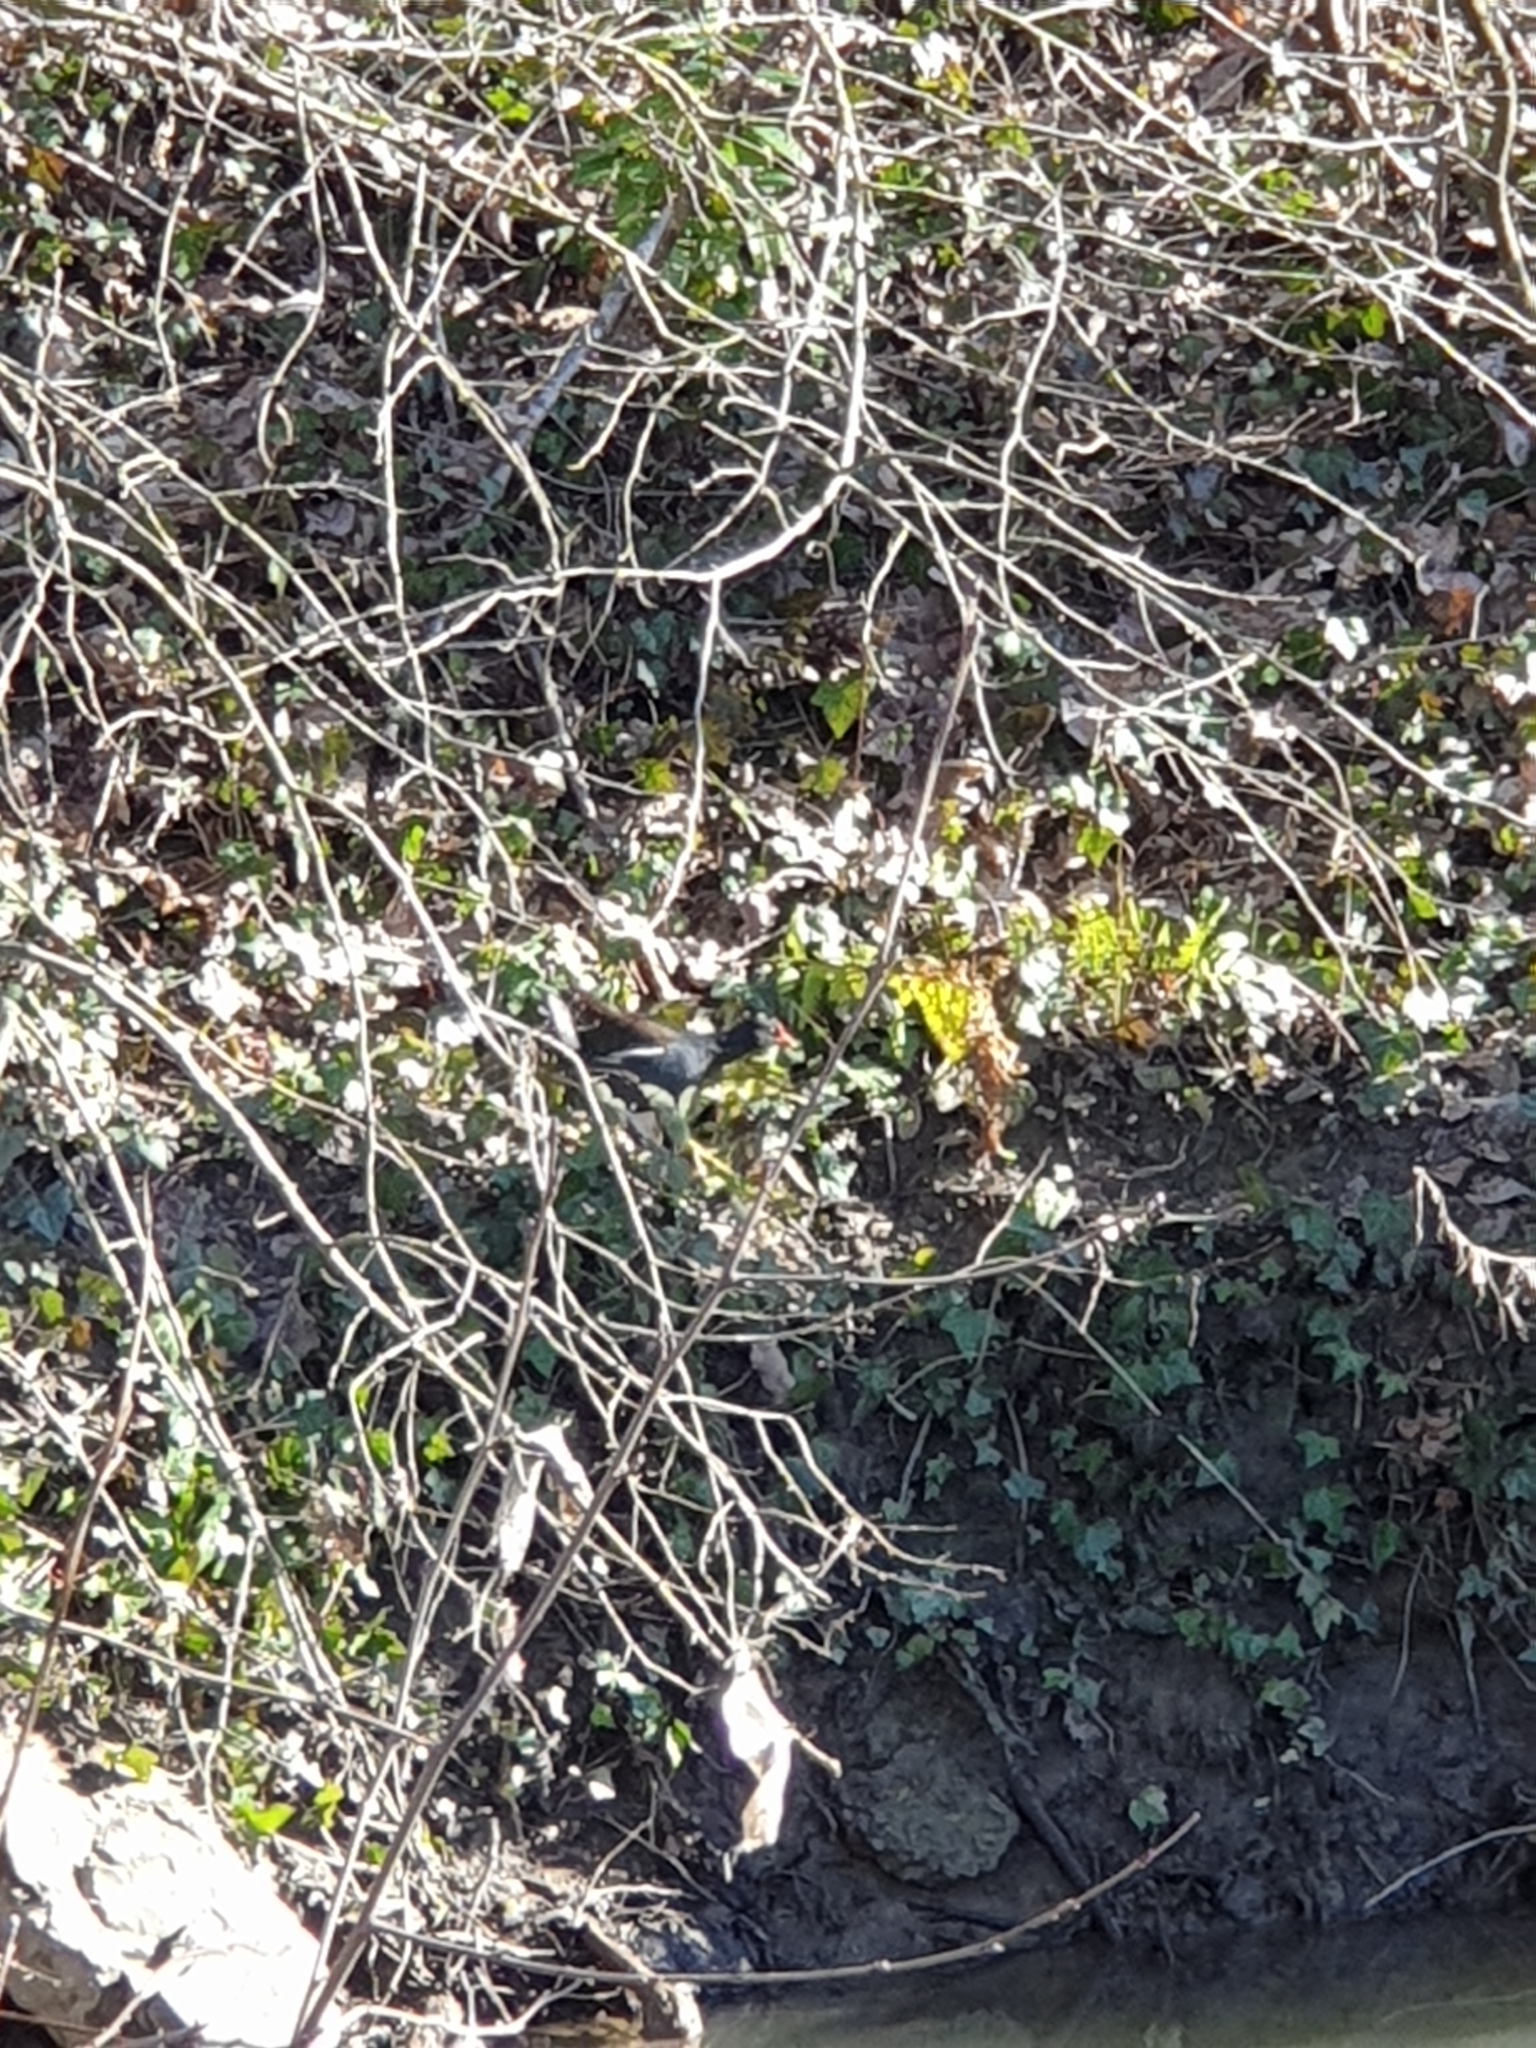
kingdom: Animalia
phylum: Chordata
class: Aves
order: Gruiformes
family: Rallidae
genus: Gallinula
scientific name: Gallinula chloropus
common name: Common moorhen
